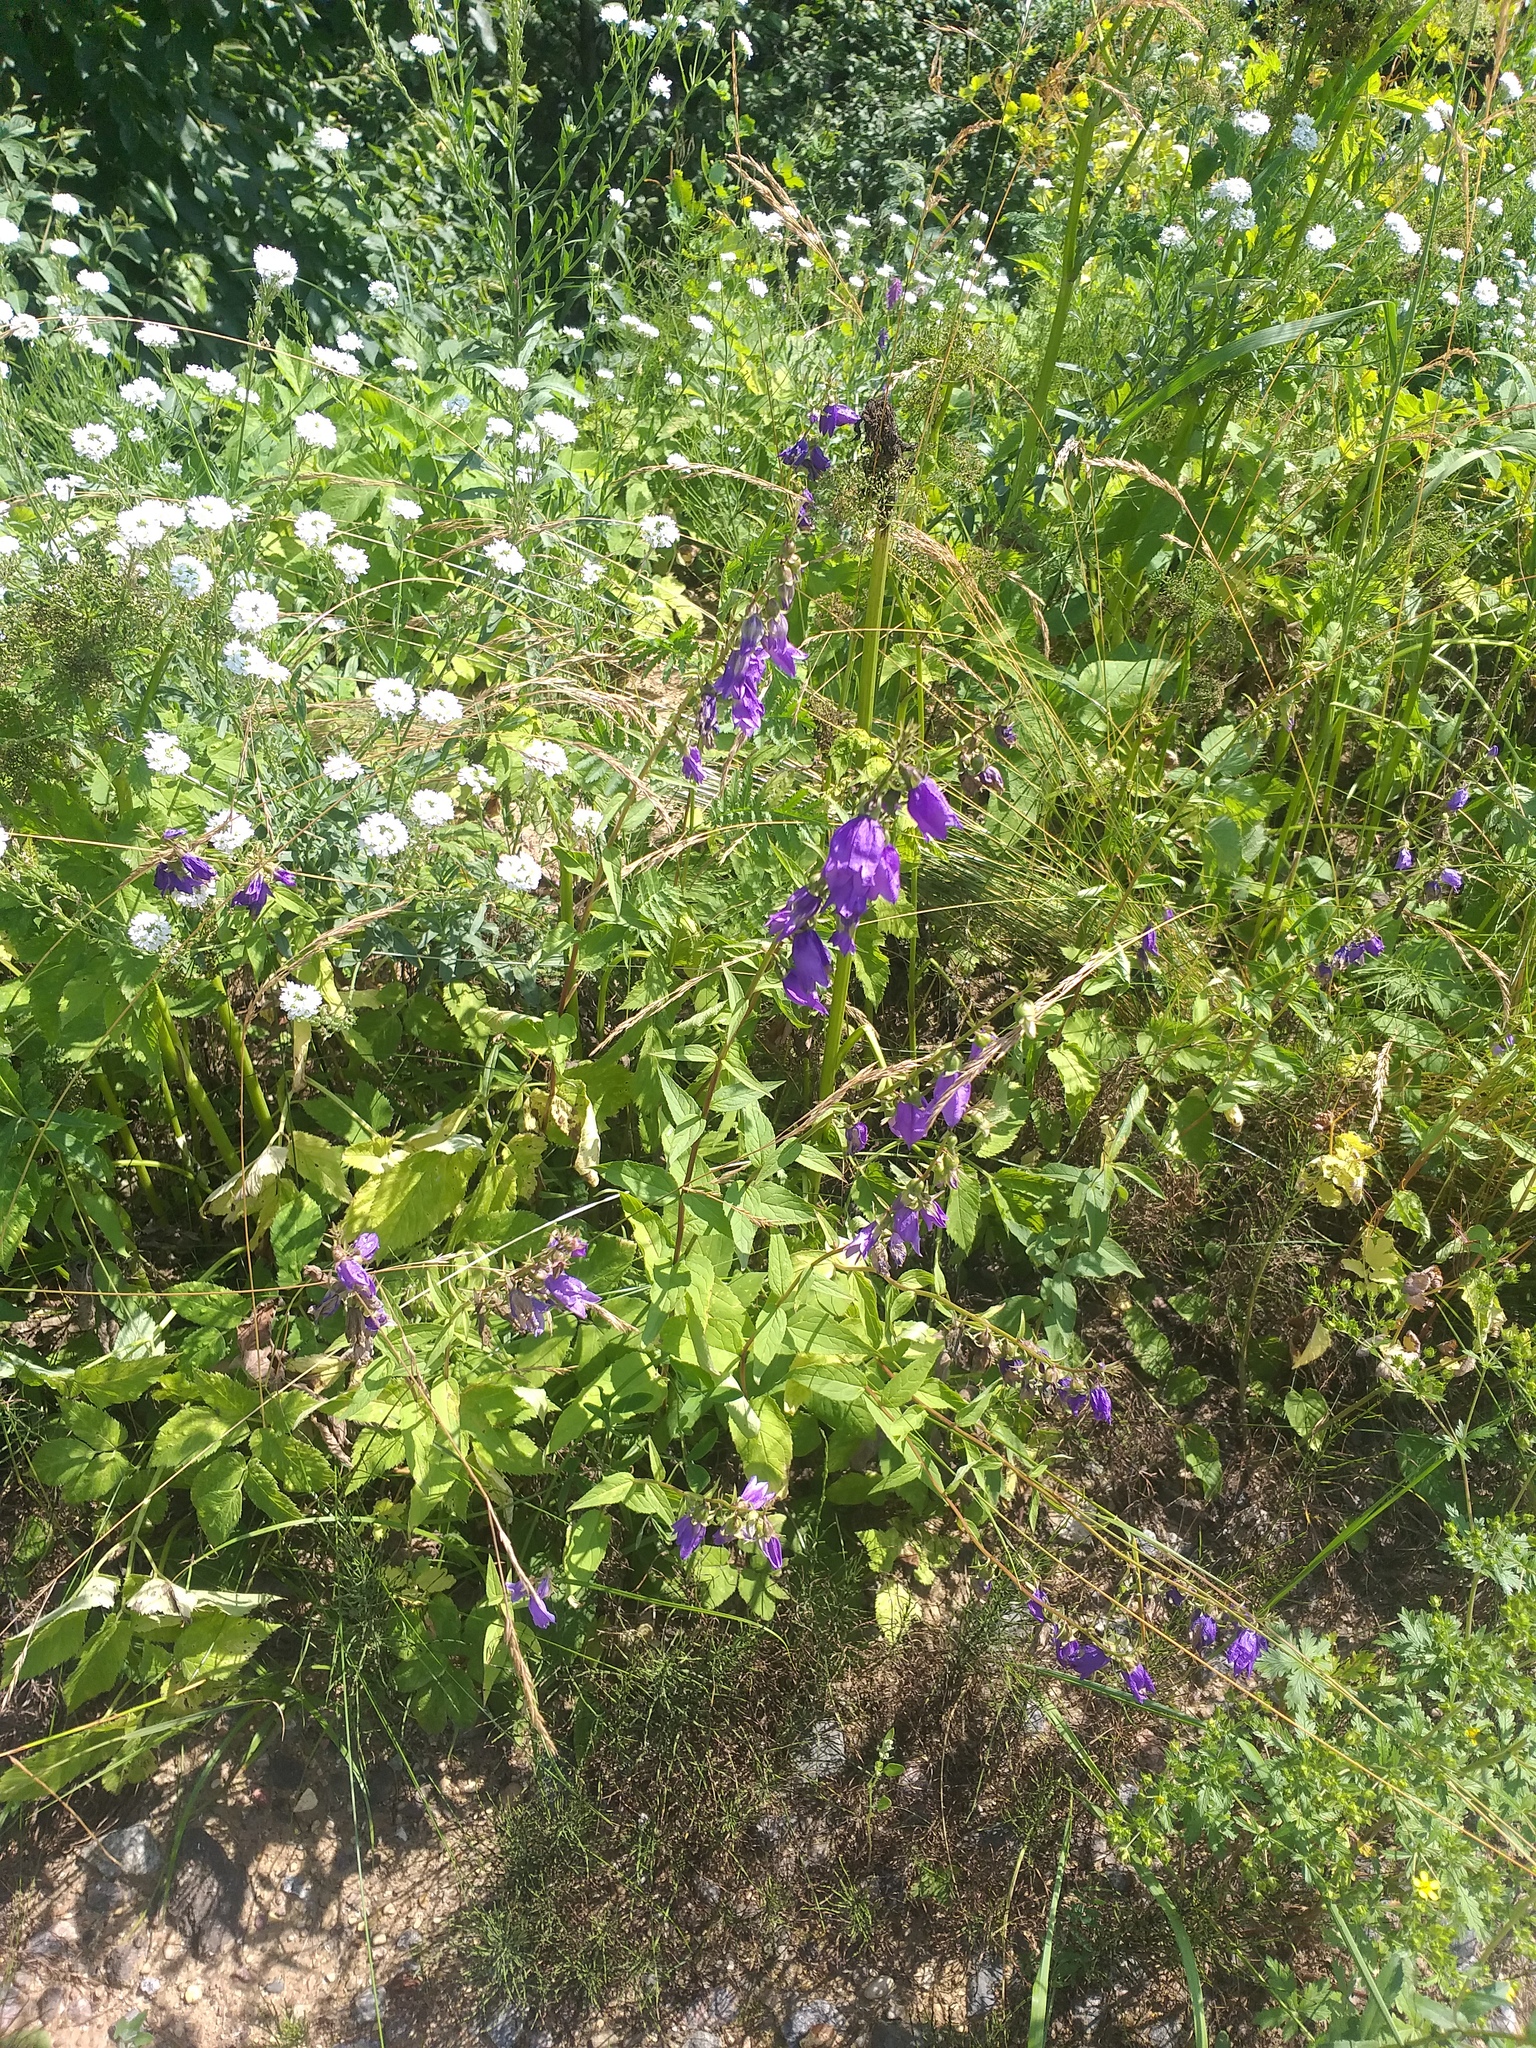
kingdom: Plantae
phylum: Tracheophyta
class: Magnoliopsida
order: Asterales
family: Campanulaceae
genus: Campanula
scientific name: Campanula rapunculoides
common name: Creeping bellflower
